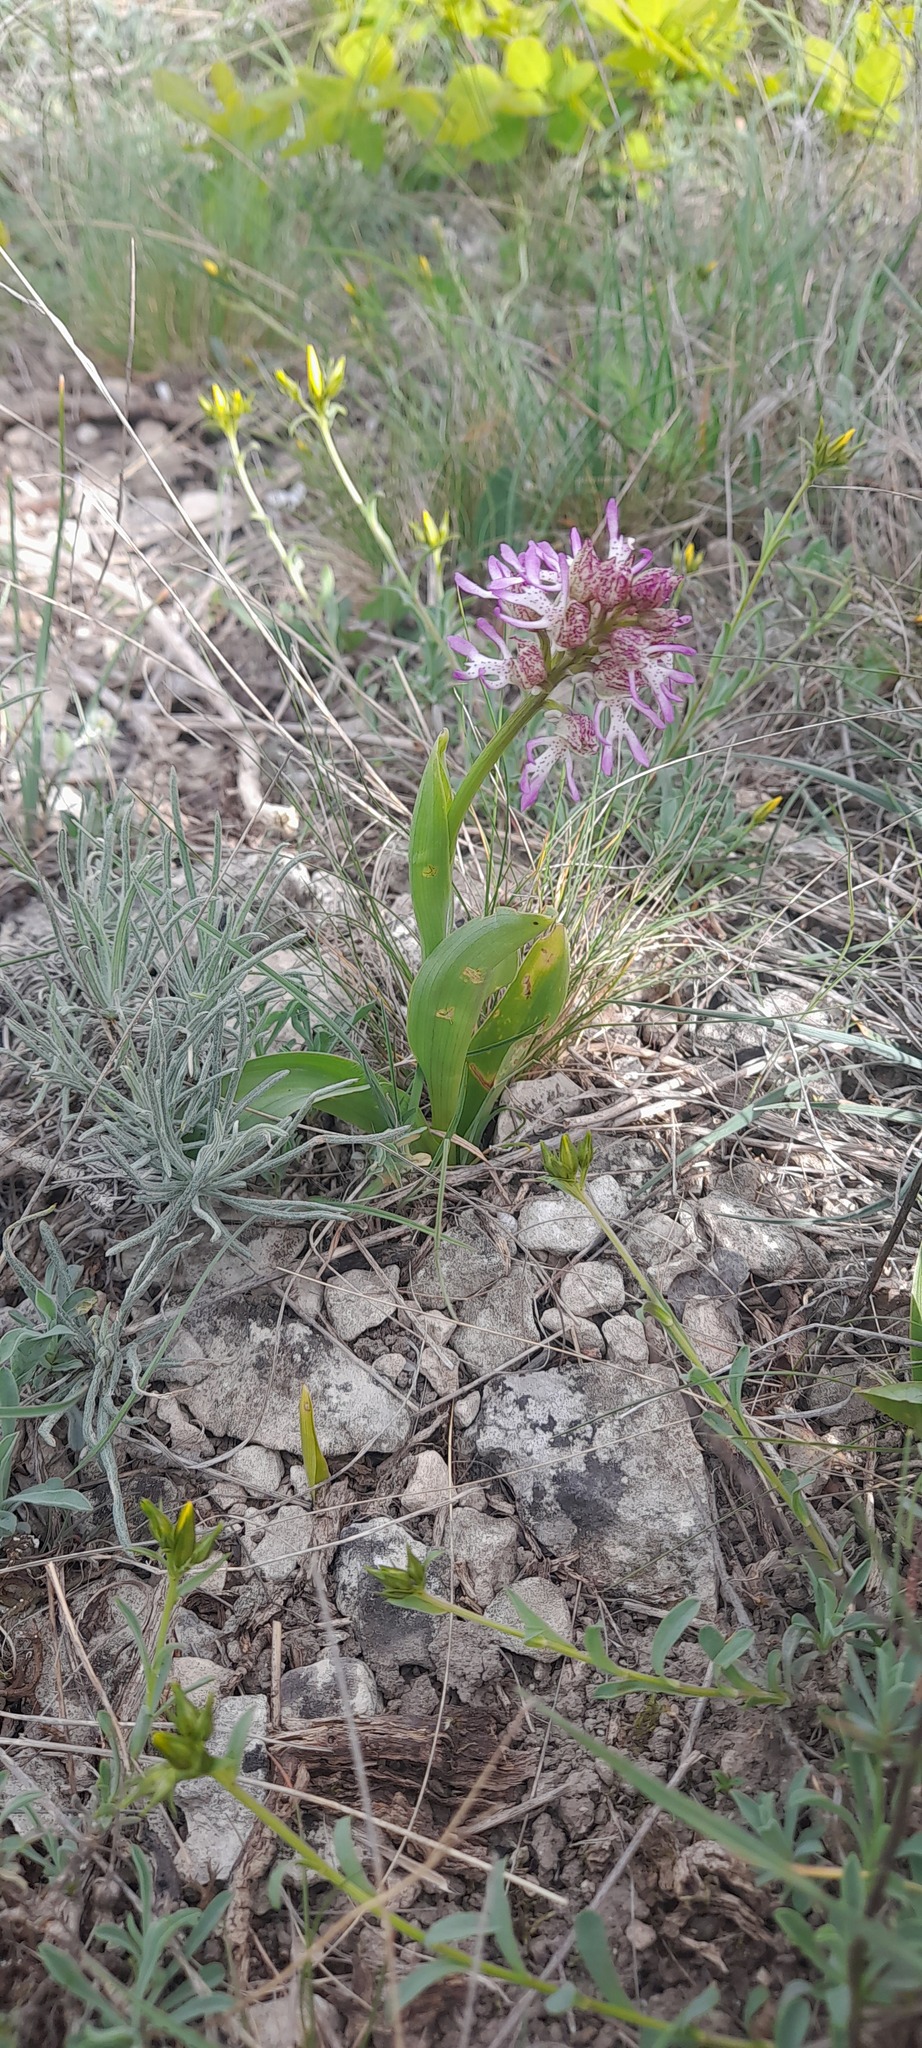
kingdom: Plantae
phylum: Tracheophyta
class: Liliopsida
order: Asparagales
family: Orchidaceae
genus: Orchis
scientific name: Orchis angusticruris
